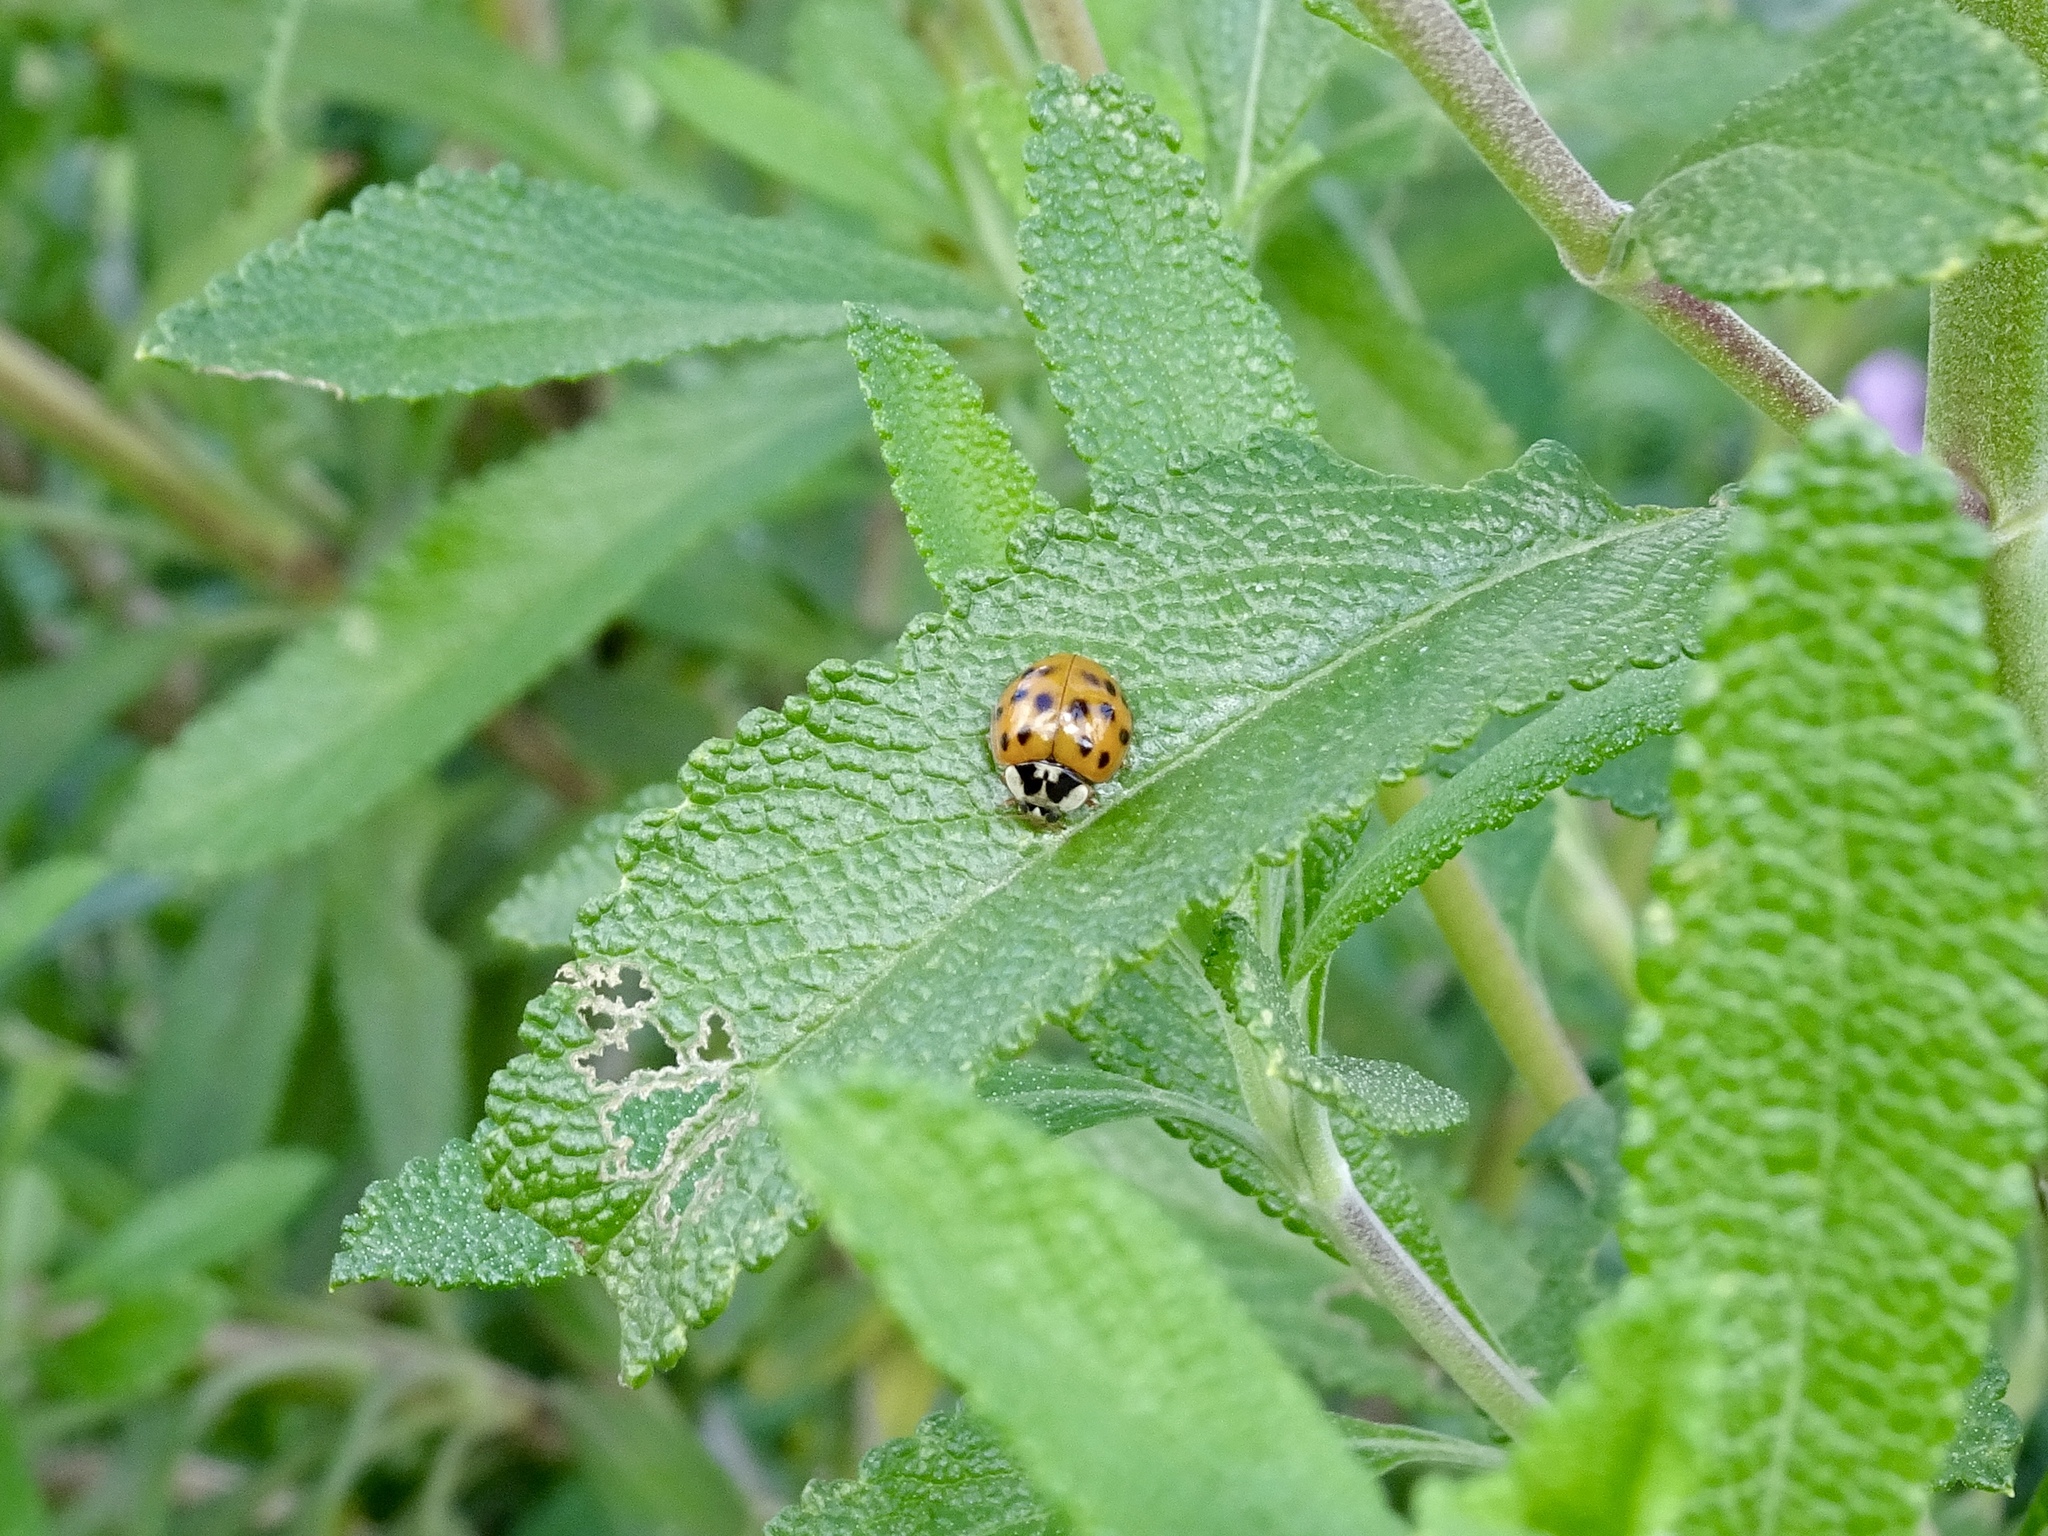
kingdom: Animalia
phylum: Arthropoda
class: Insecta
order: Coleoptera
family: Coccinellidae
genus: Harmonia
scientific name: Harmonia axyridis
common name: Harlequin ladybird
